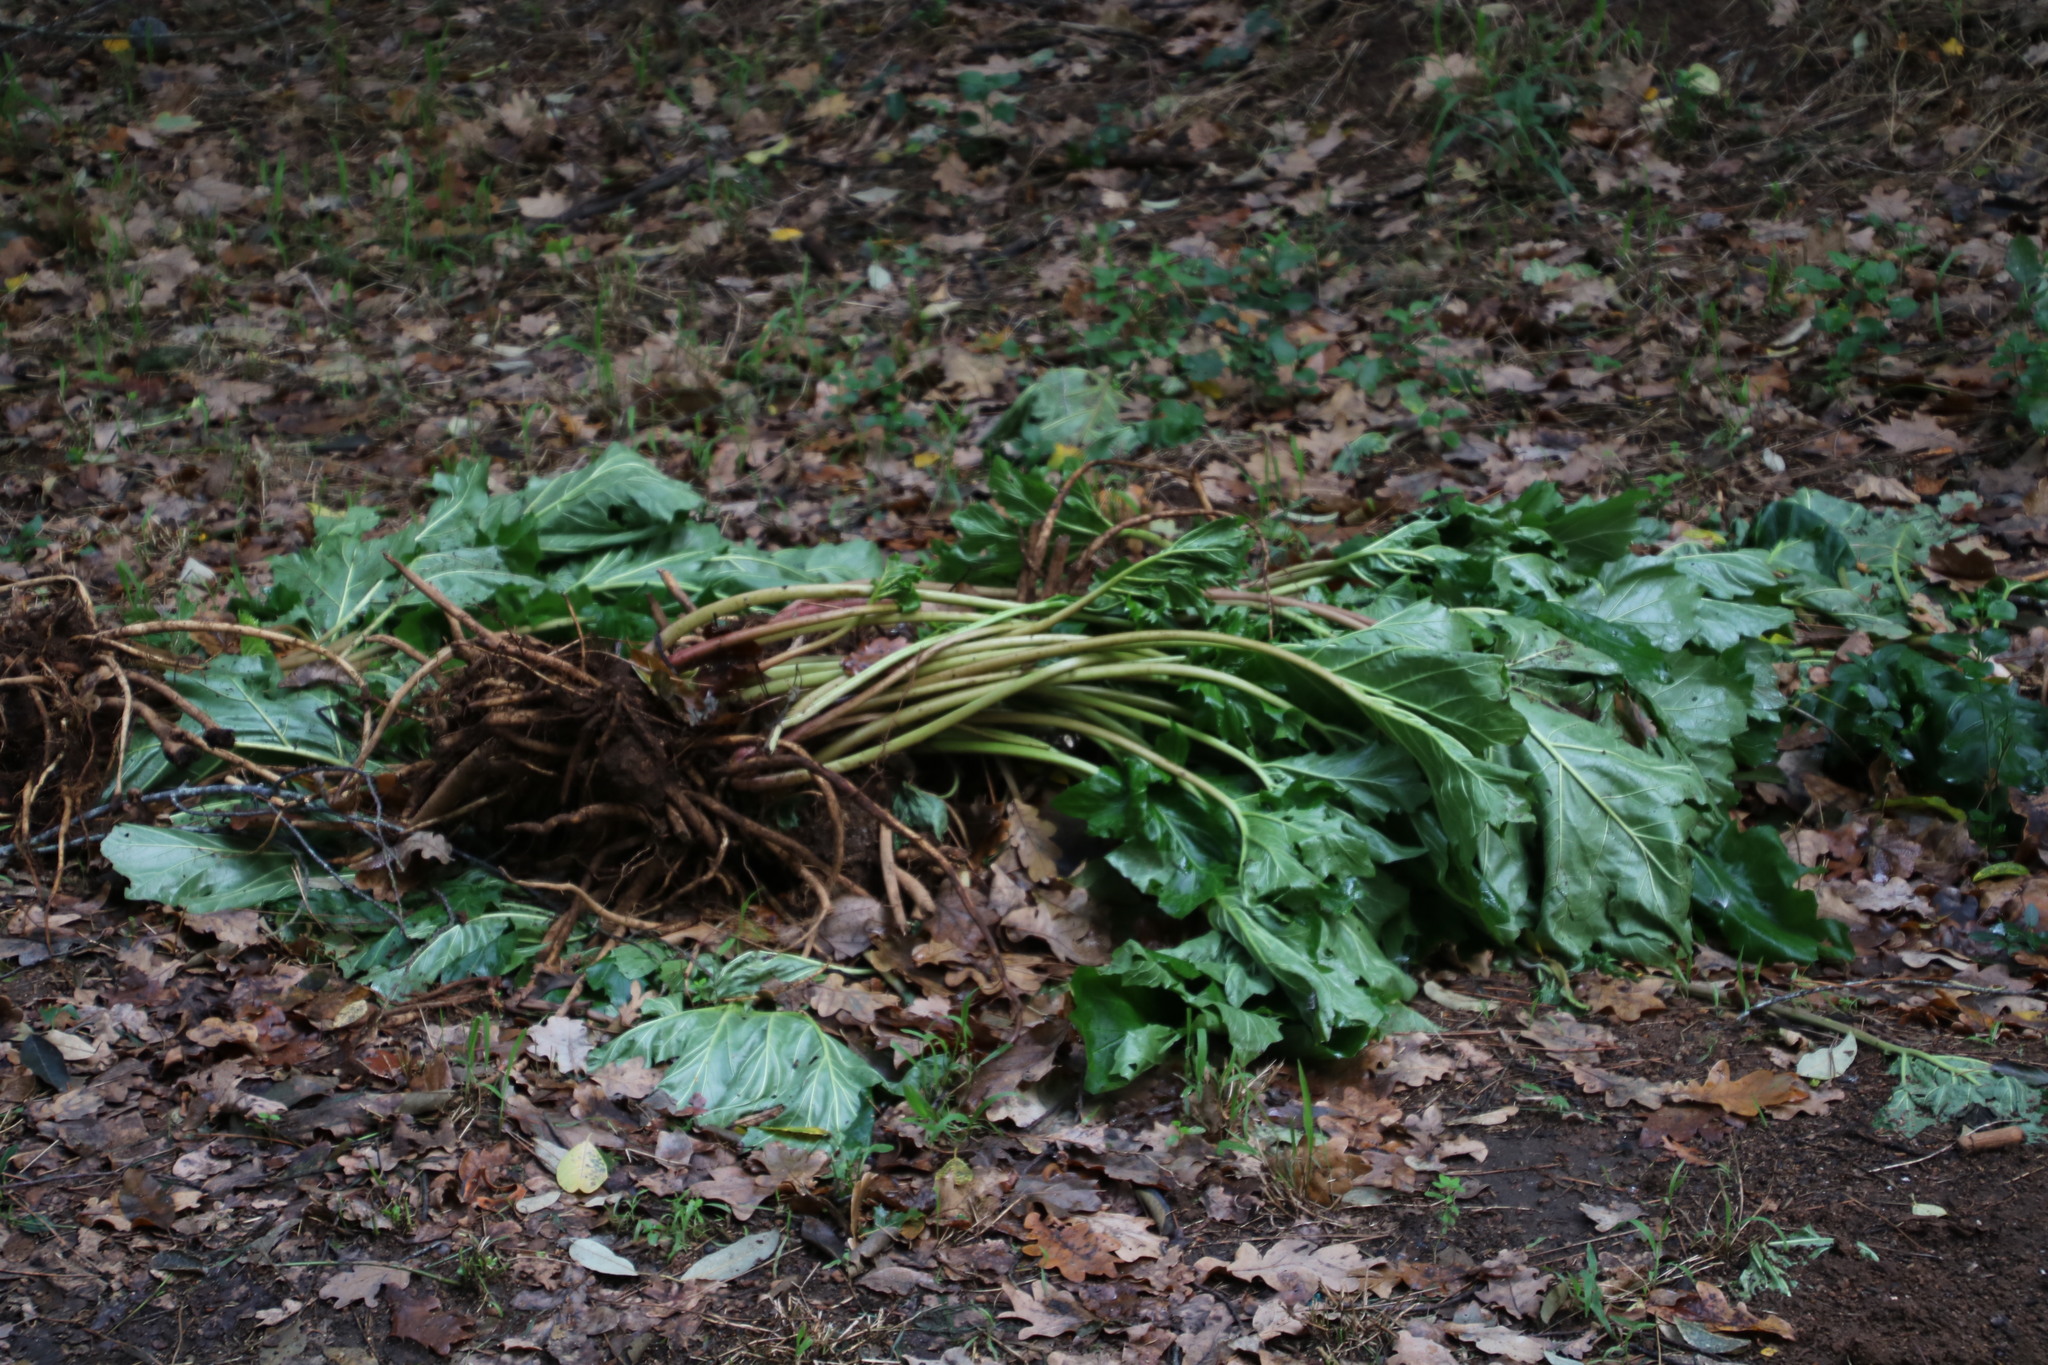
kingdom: Plantae
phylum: Tracheophyta
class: Magnoliopsida
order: Lamiales
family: Acanthaceae
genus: Acanthus
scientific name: Acanthus mollis
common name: Bear's-breech
